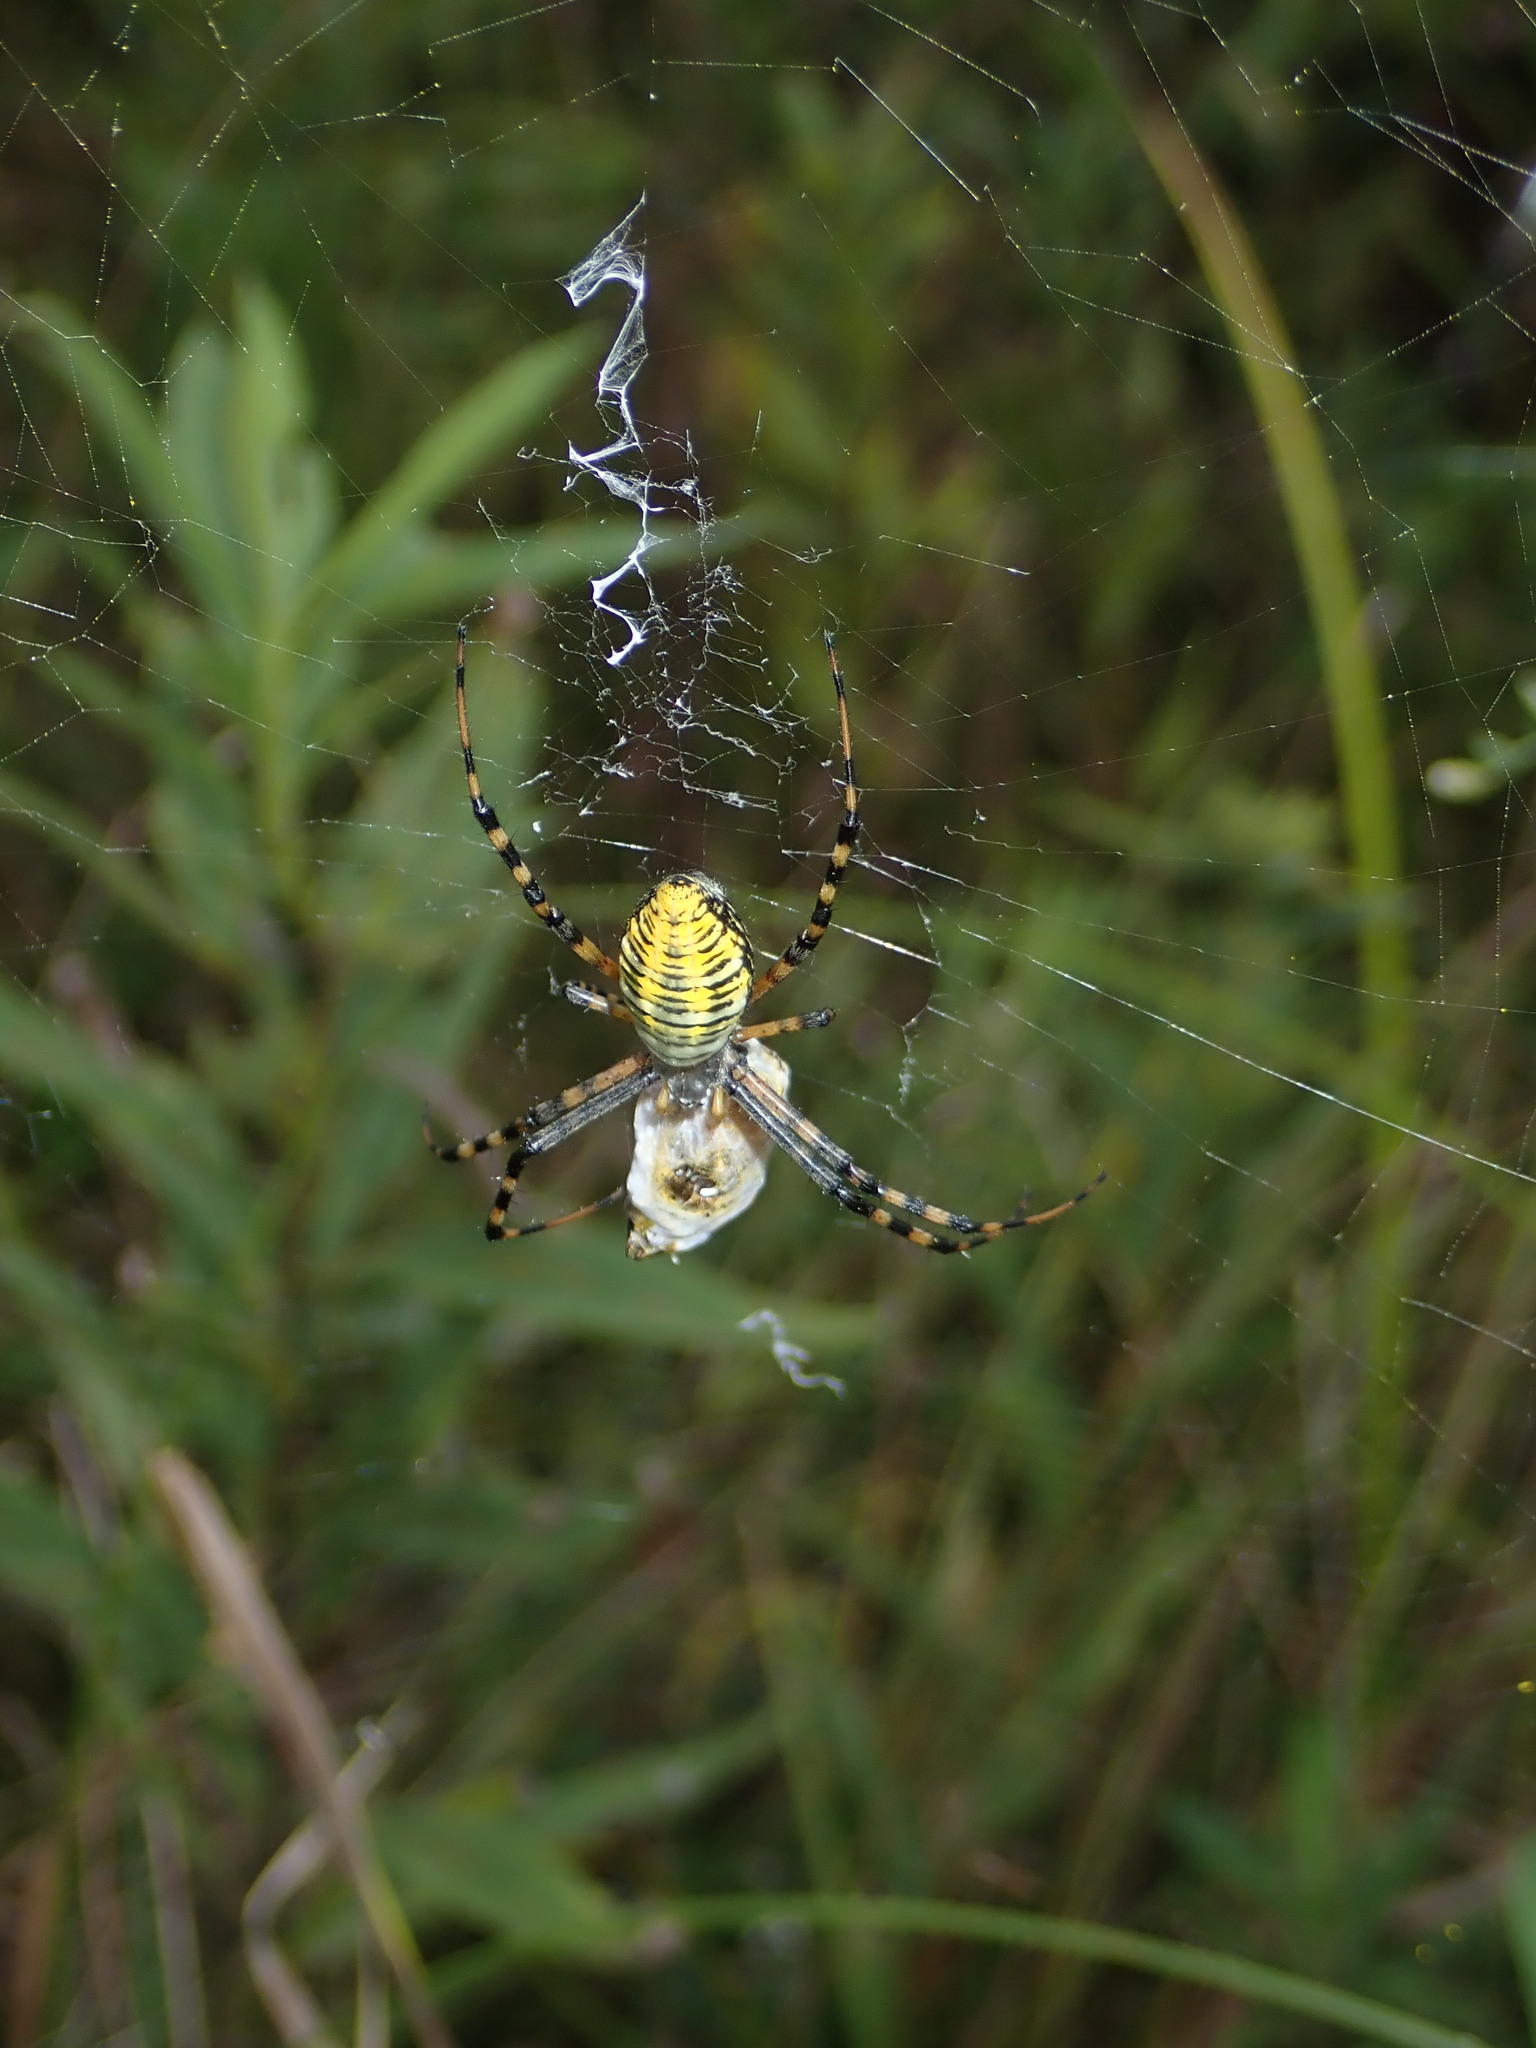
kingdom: Animalia
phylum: Arthropoda
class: Arachnida
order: Araneae
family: Araneidae
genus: Argiope
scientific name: Argiope trifasciata
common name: Banded garden spider
